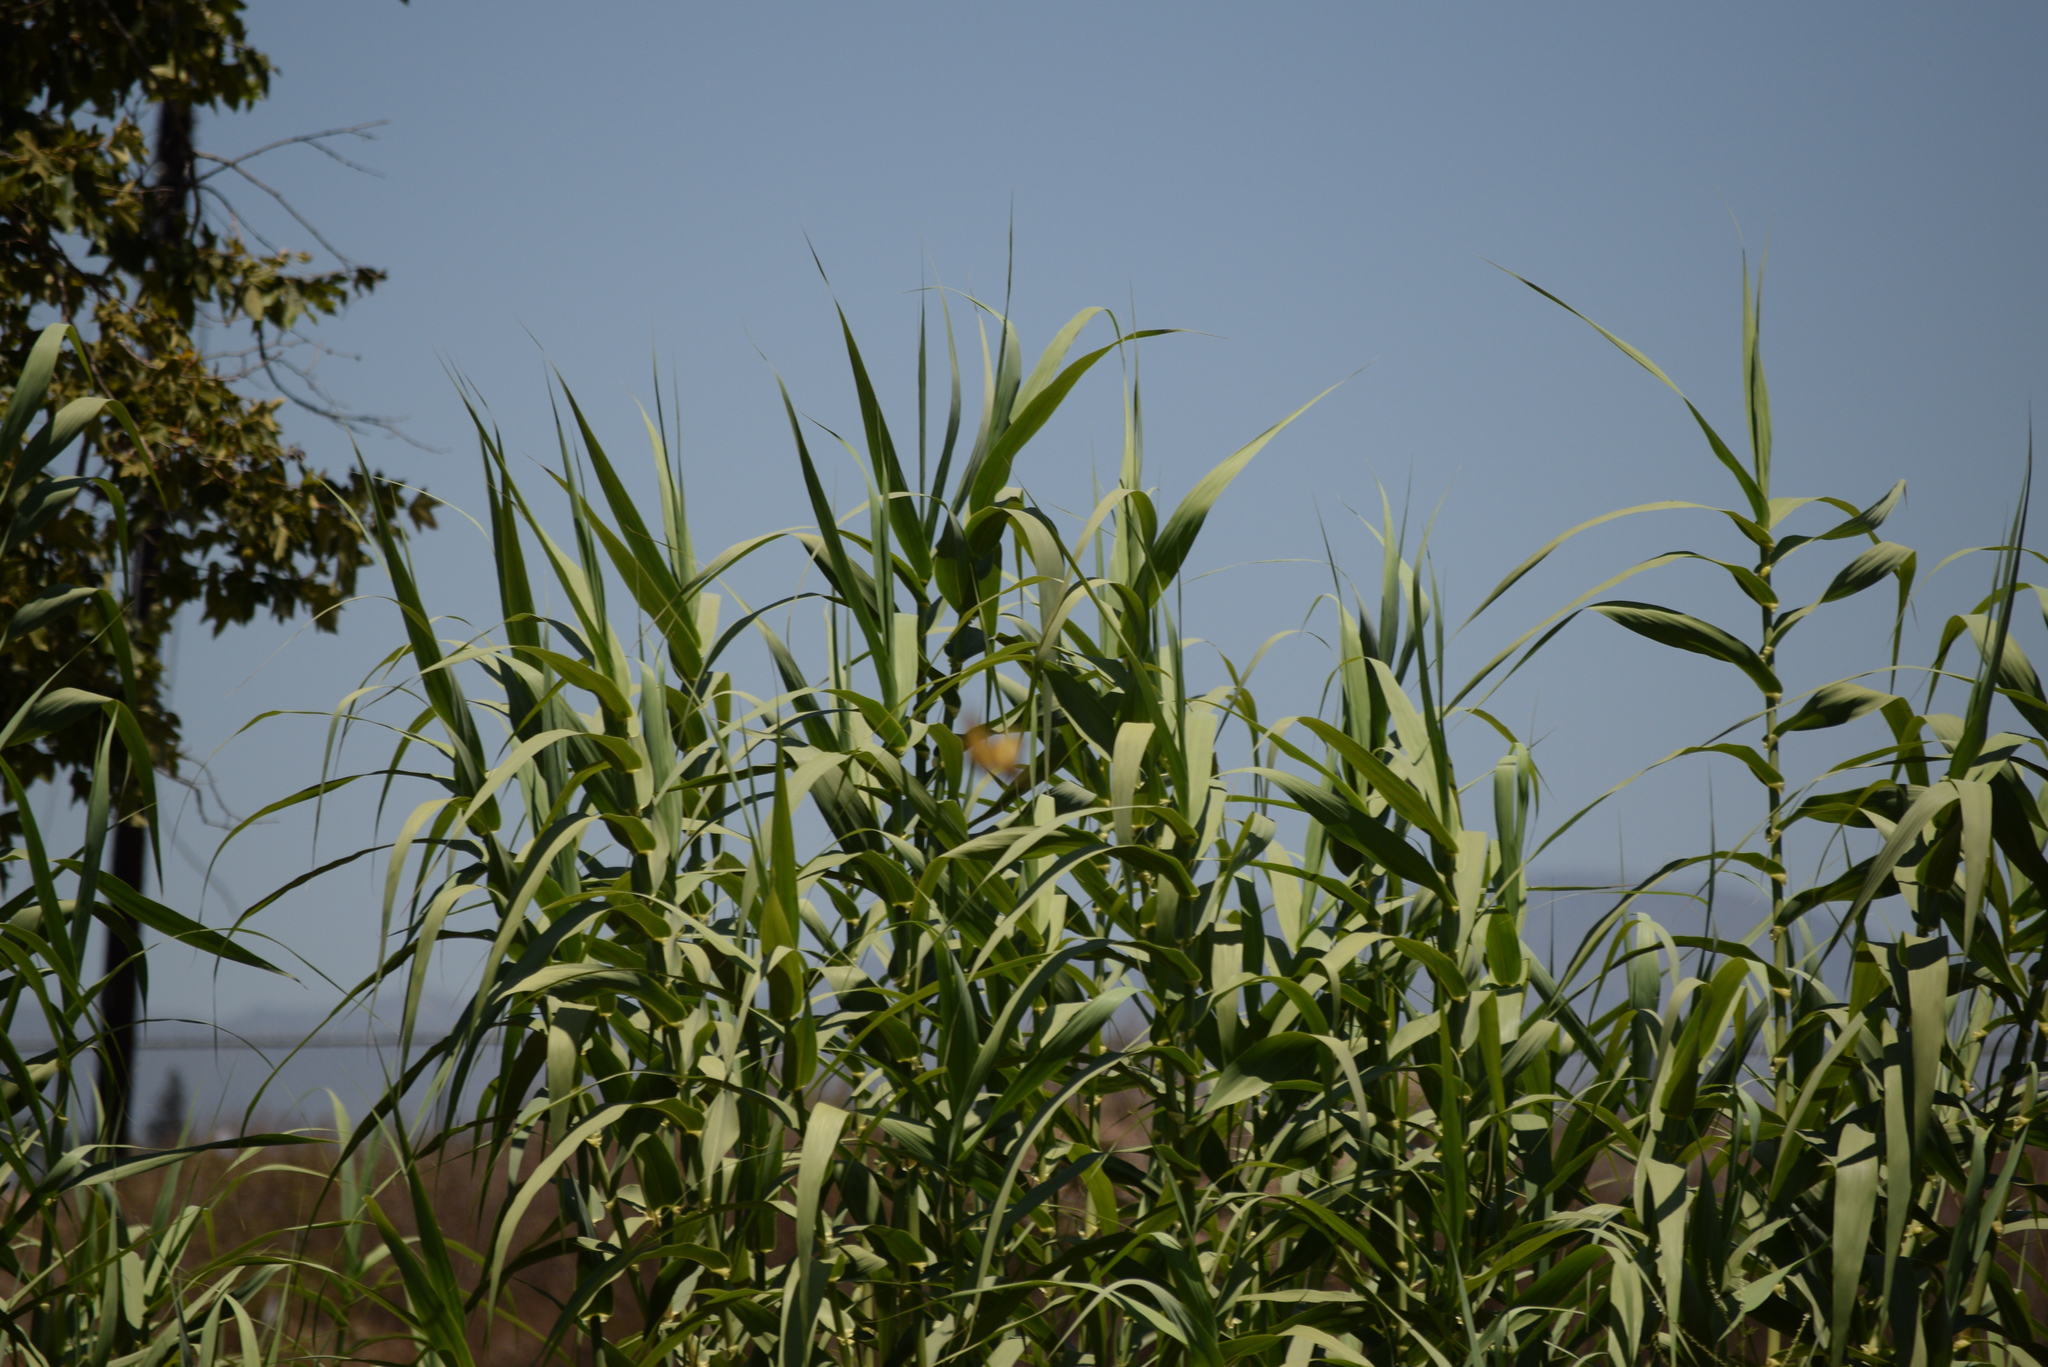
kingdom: Plantae
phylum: Tracheophyta
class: Liliopsida
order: Poales
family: Poaceae
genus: Arundo
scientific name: Arundo donax
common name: Giant reed
